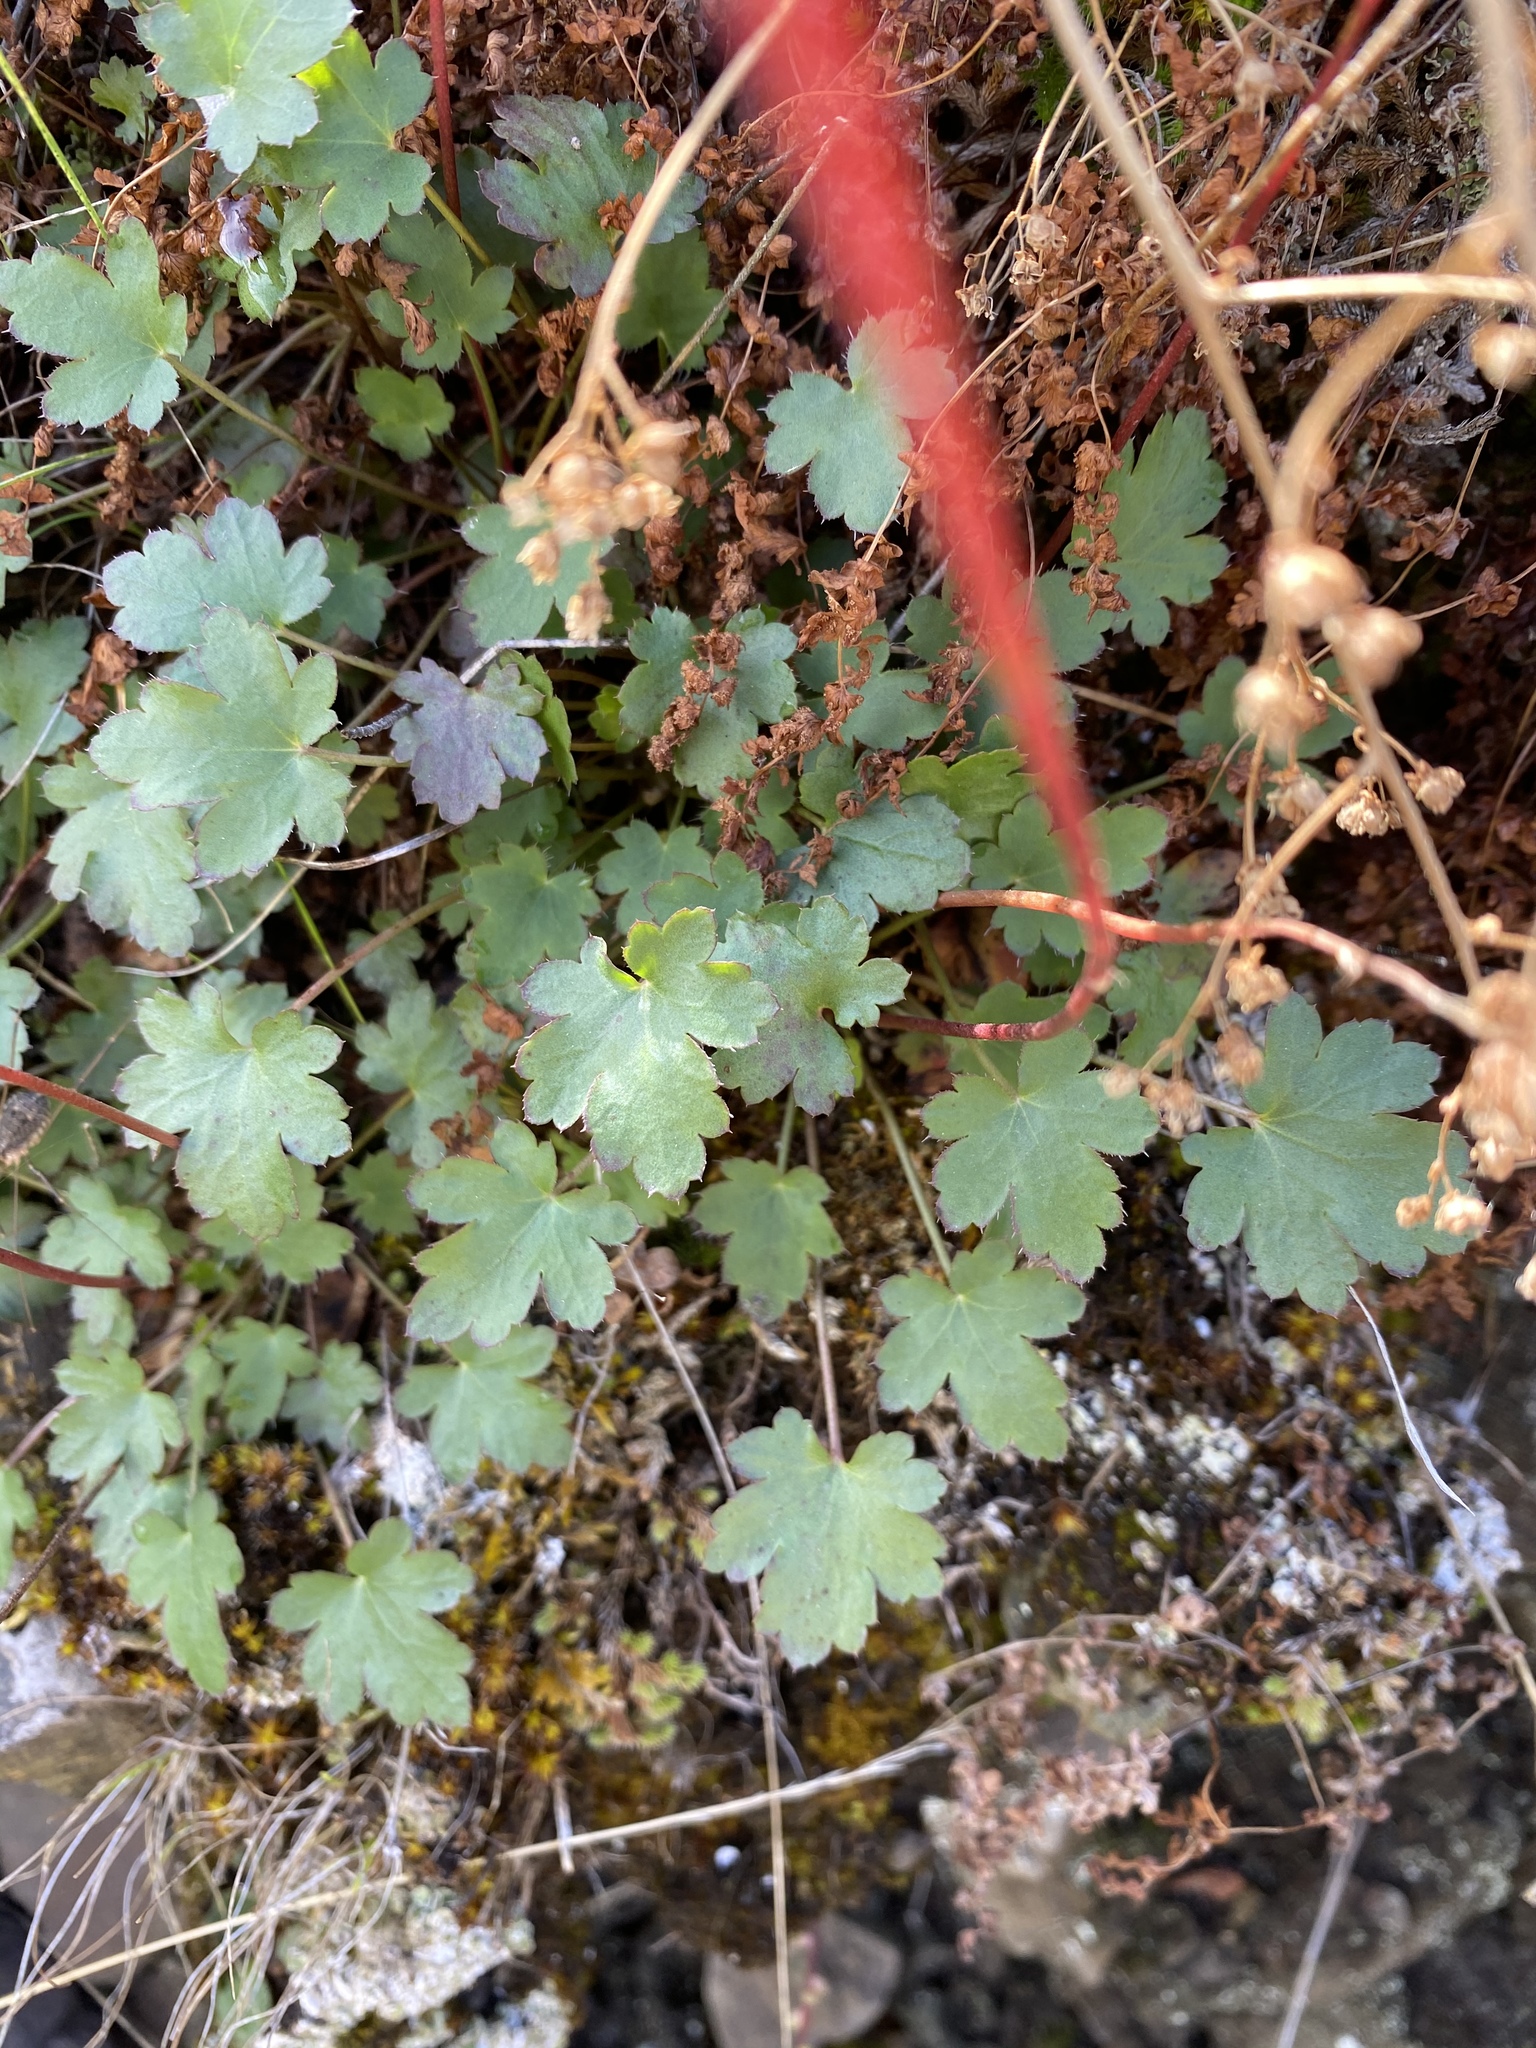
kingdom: Plantae
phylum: Tracheophyta
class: Magnoliopsida
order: Saxifragales
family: Saxifragaceae
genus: Heuchera
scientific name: Heuchera grossulariifolia
